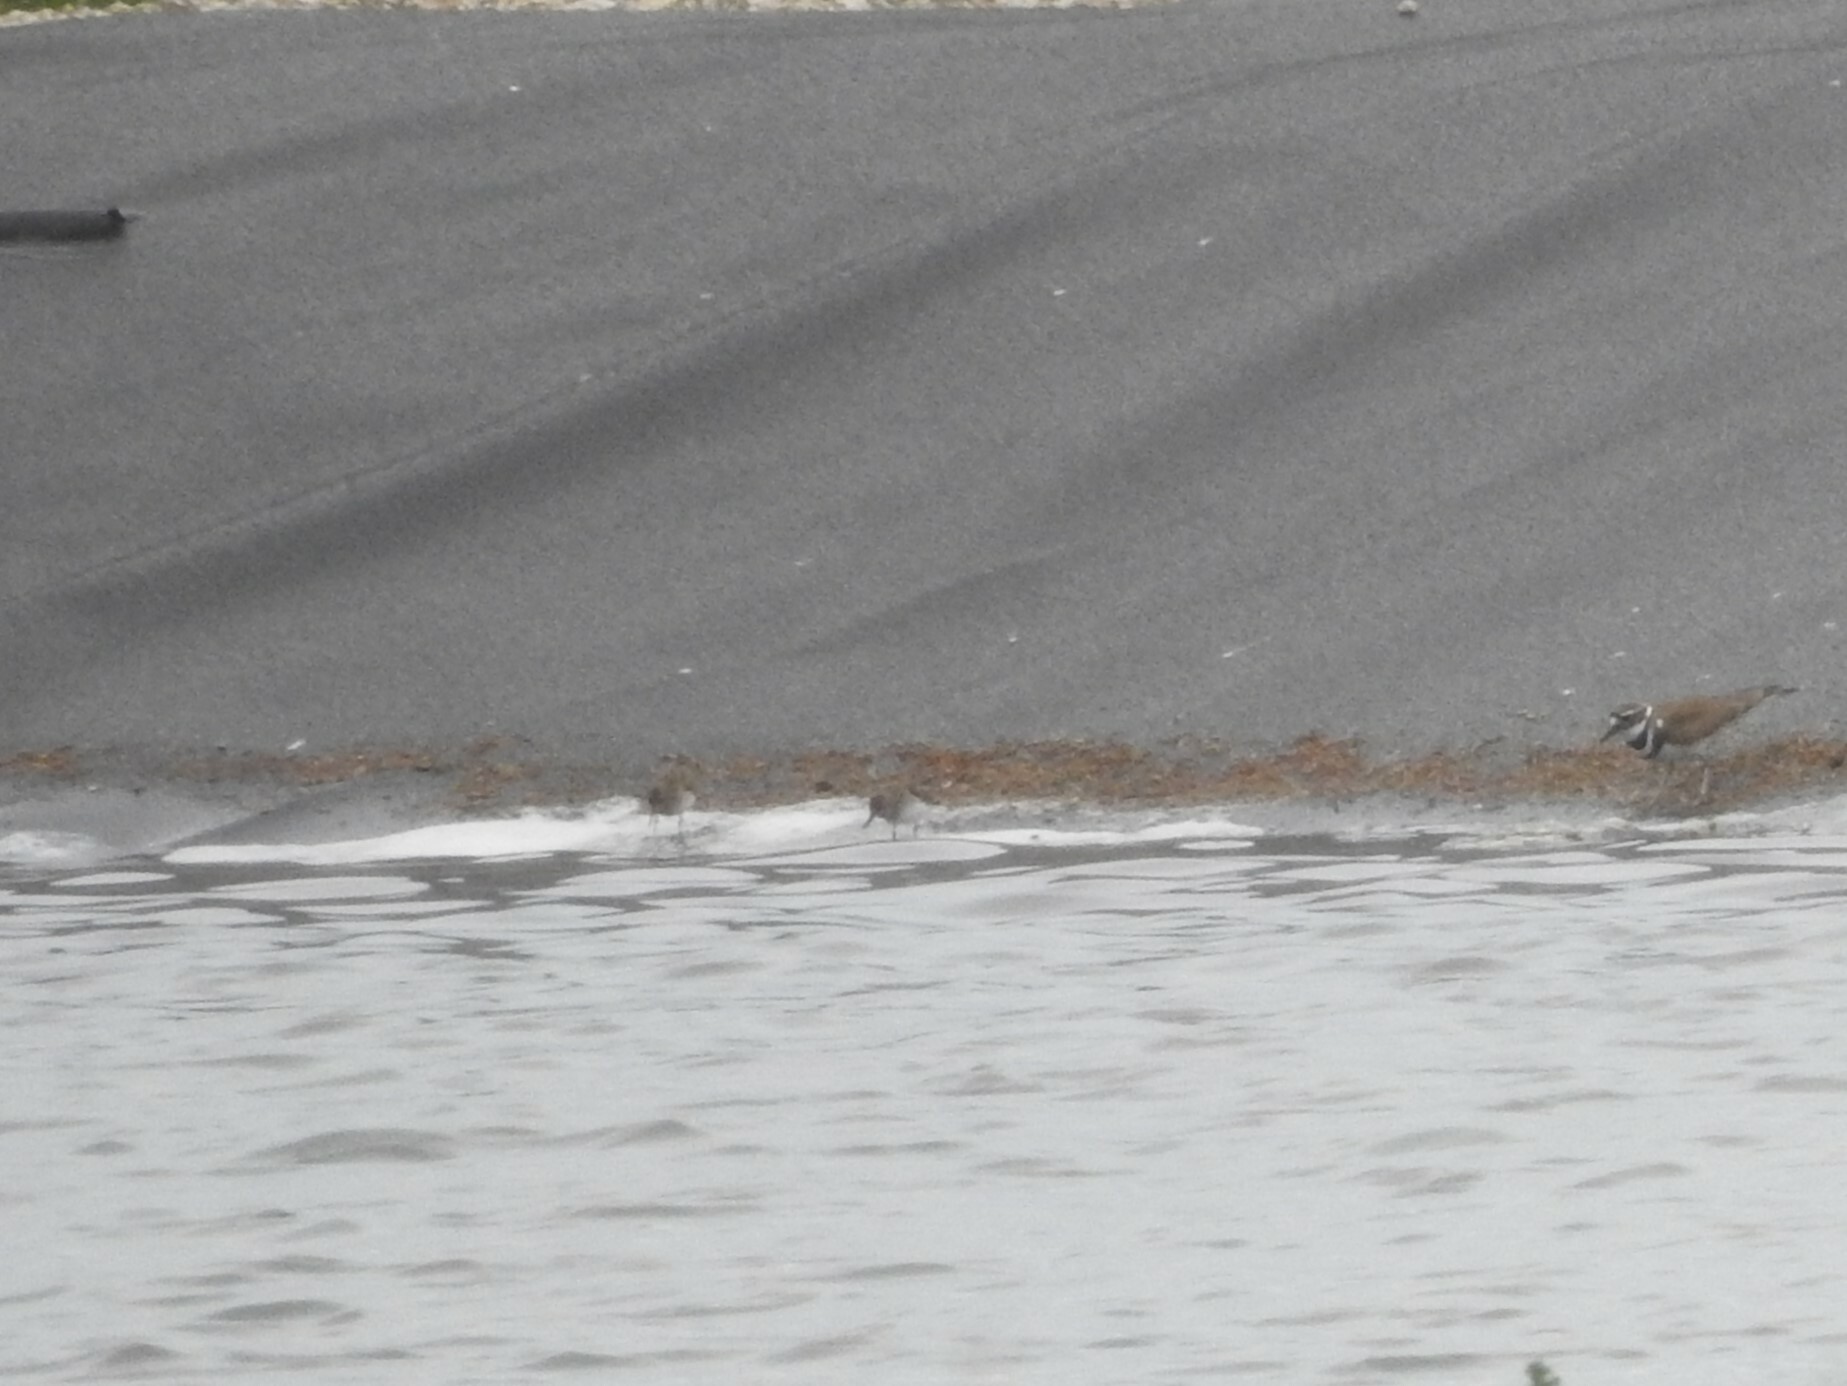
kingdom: Animalia
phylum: Chordata
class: Aves
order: Charadriiformes
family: Scolopacidae
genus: Calidris
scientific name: Calidris minutilla
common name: Least sandpiper
